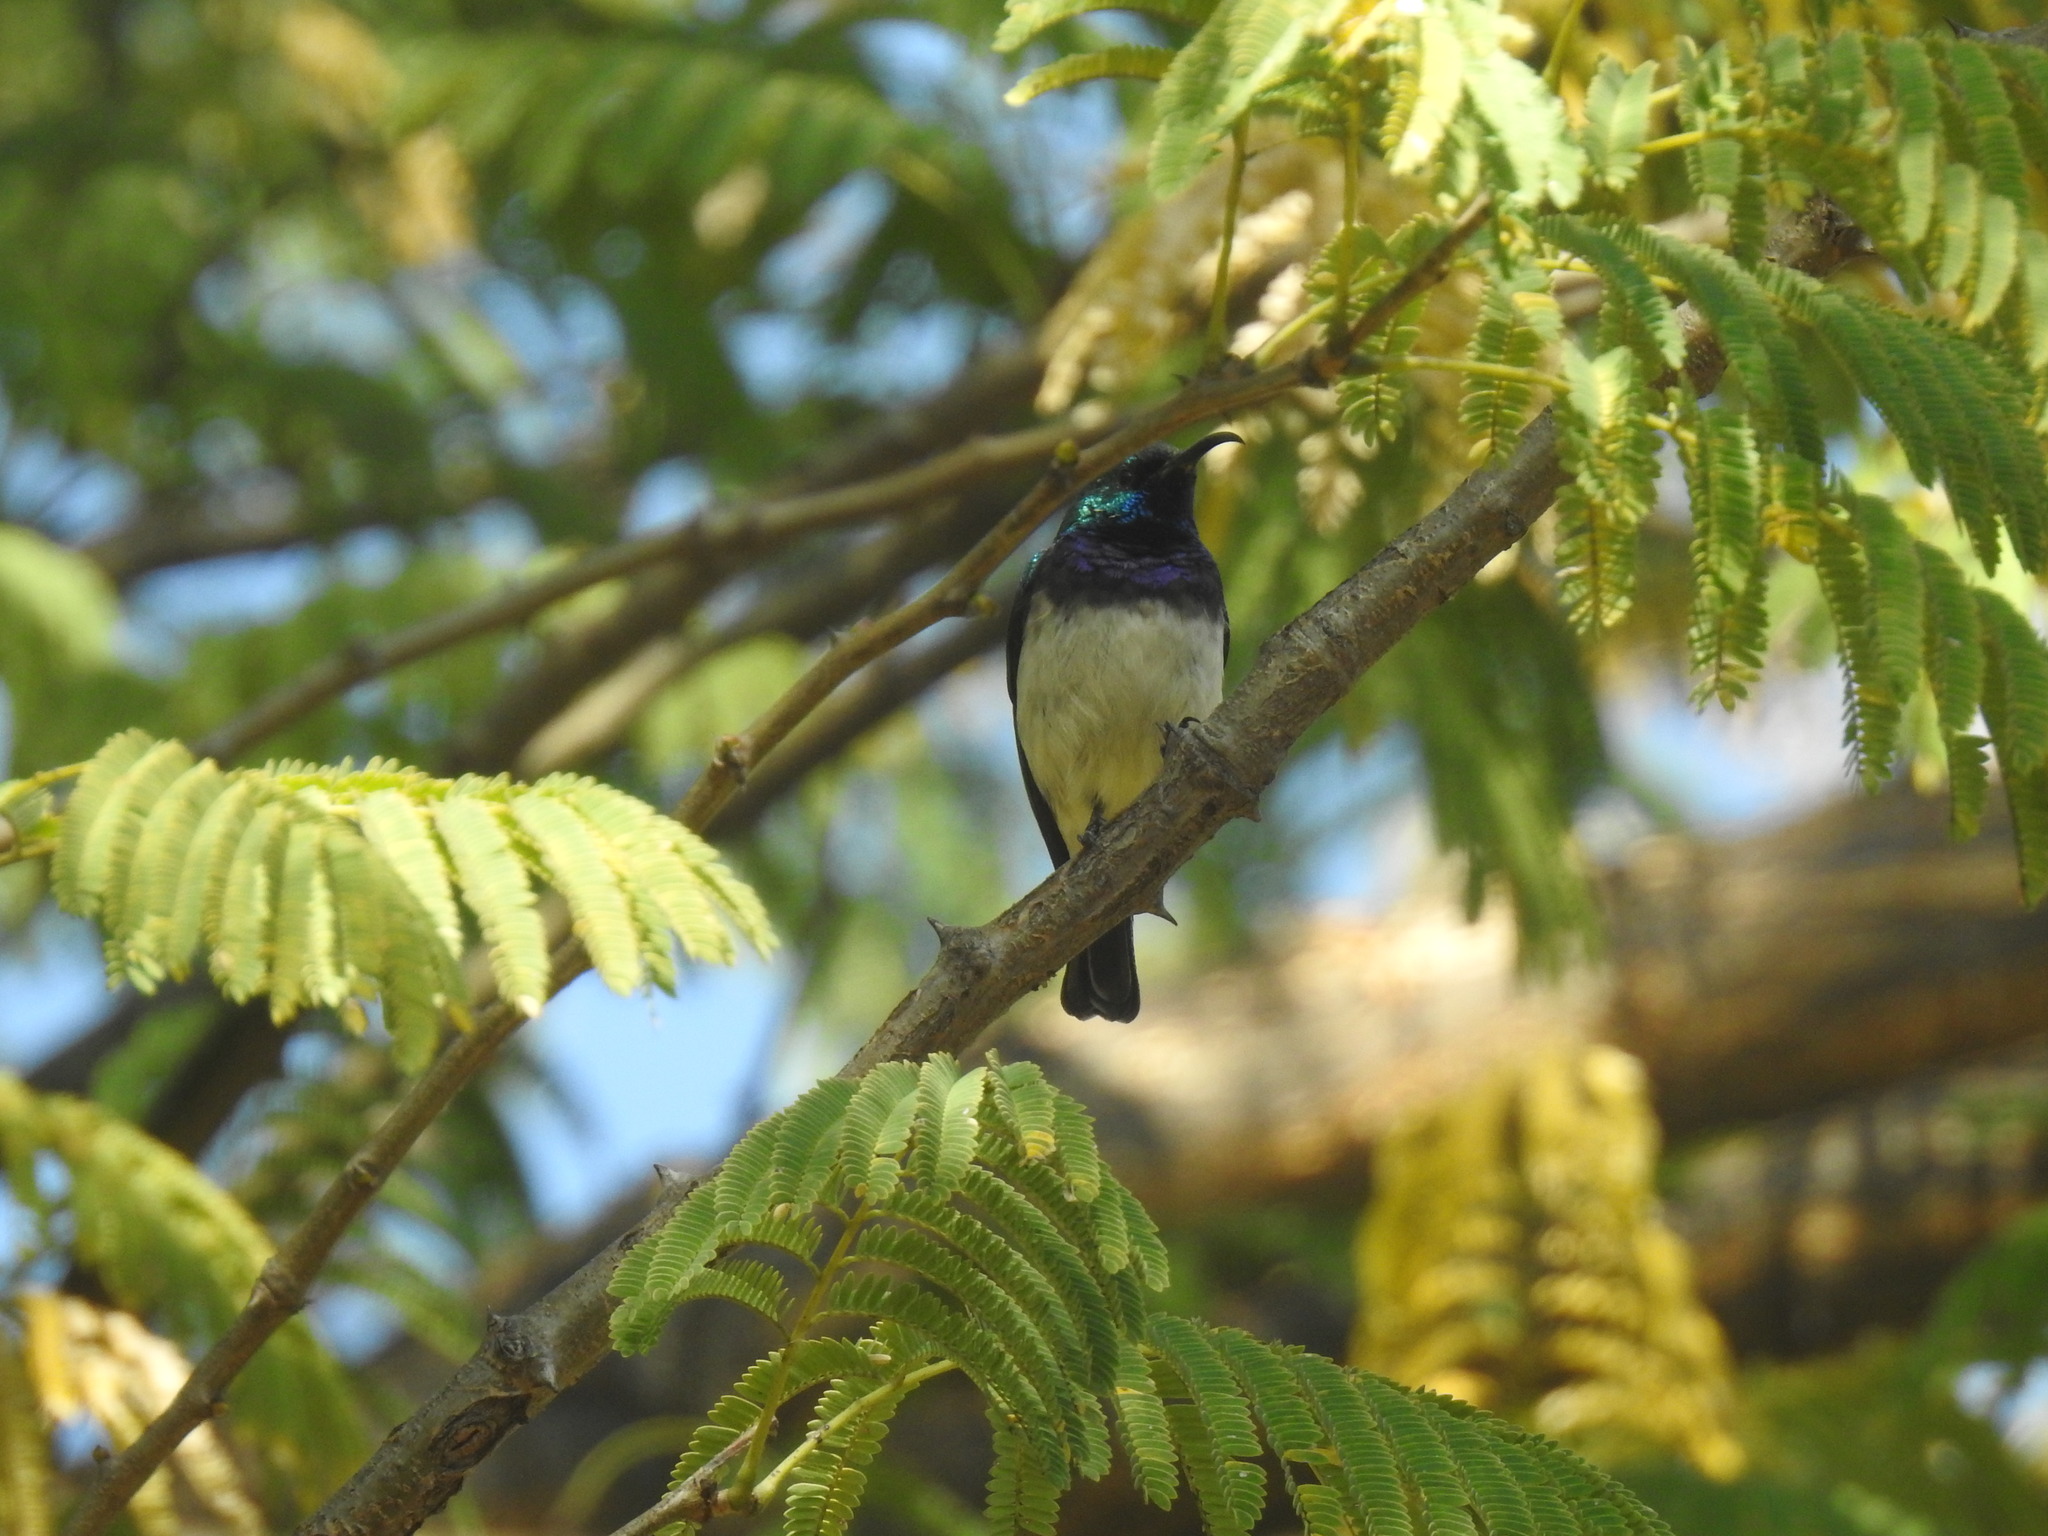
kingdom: Animalia
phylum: Chordata
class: Aves
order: Passeriformes
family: Nectariniidae
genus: Cinnyris
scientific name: Cinnyris talatala
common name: White-bellied sunbird
